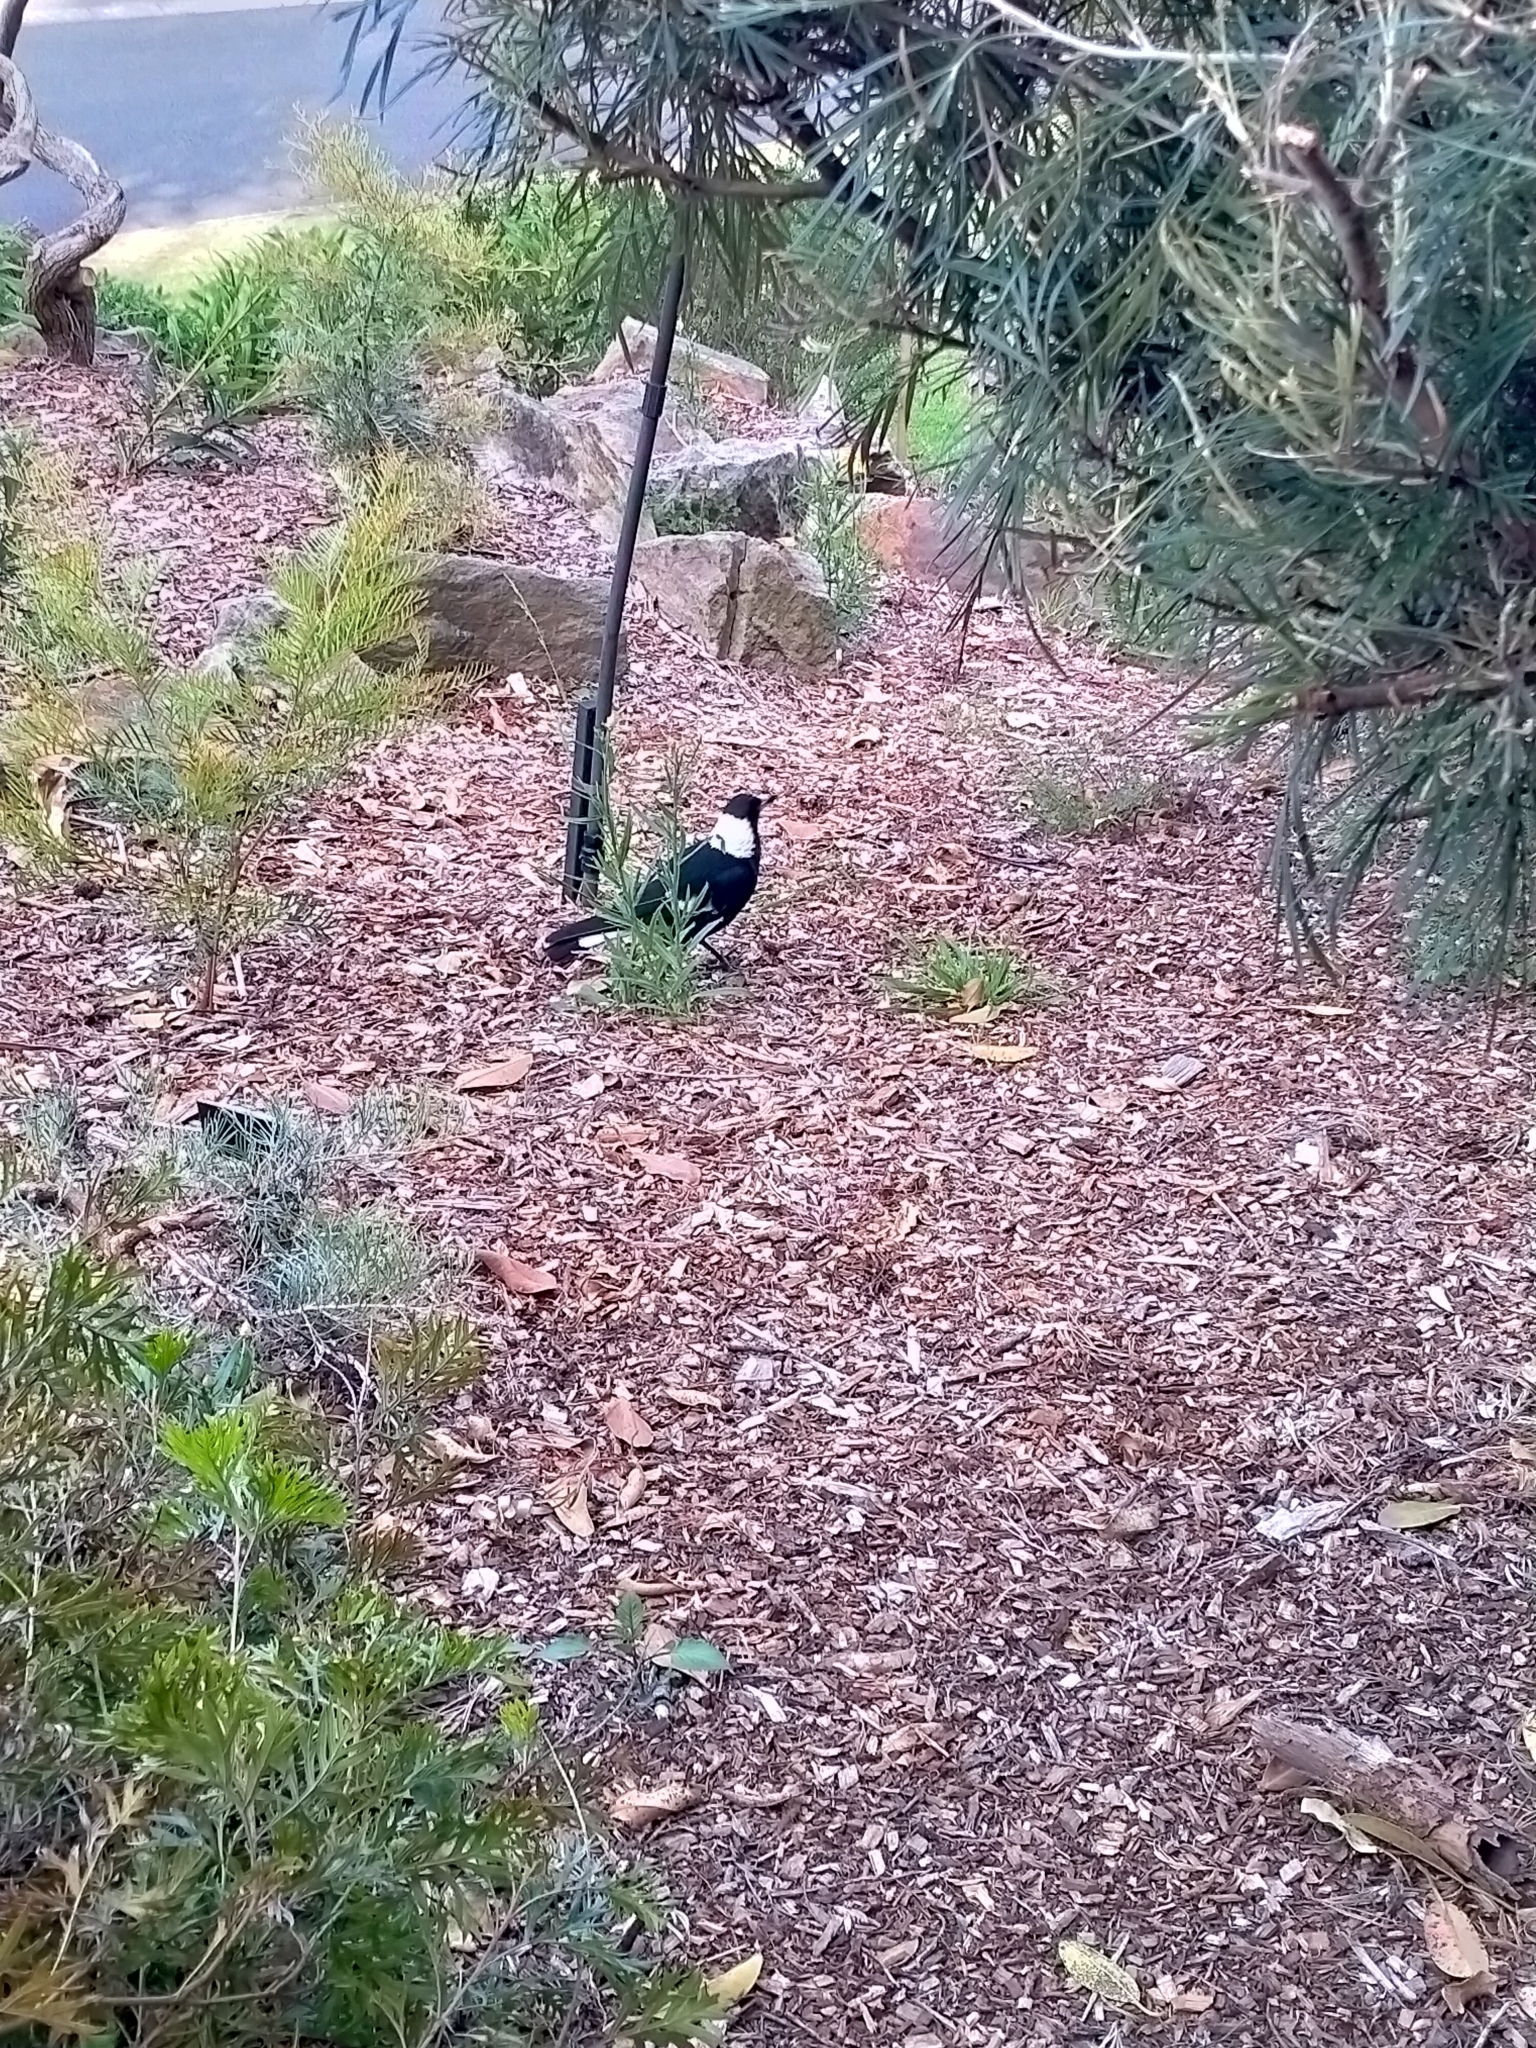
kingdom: Animalia
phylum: Chordata
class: Aves
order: Passeriformes
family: Cracticidae
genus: Gymnorhina
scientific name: Gymnorhina tibicen
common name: Australian magpie
